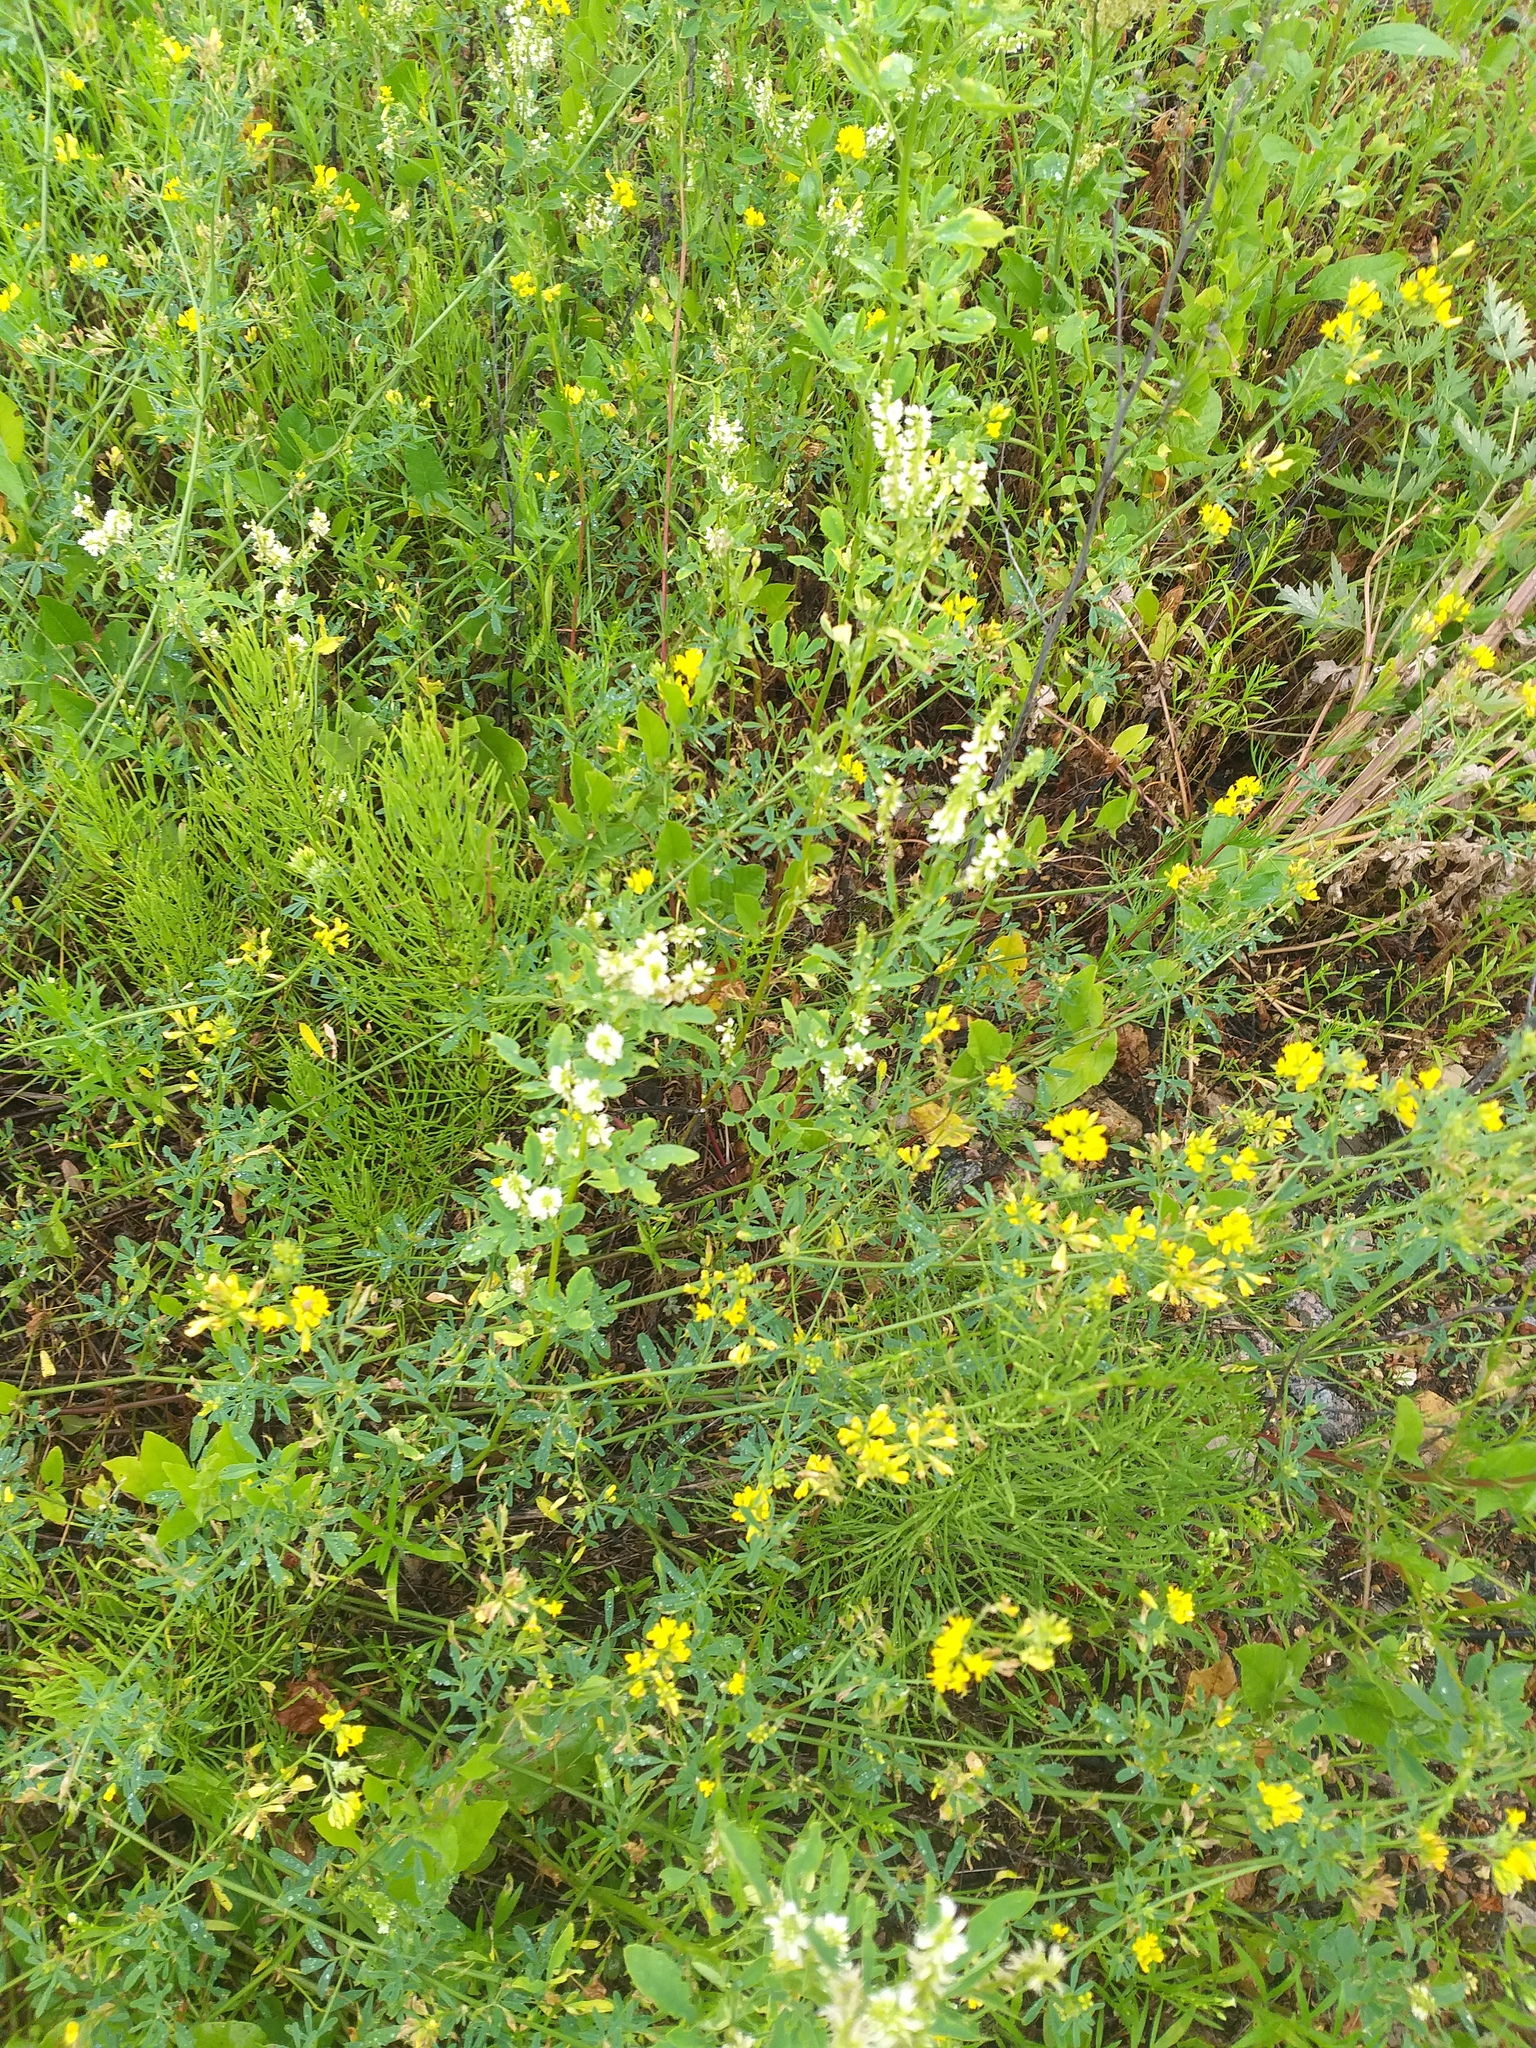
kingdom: Plantae
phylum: Tracheophyta
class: Magnoliopsida
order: Fabales
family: Fabaceae
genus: Melilotus
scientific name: Melilotus albus
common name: White melilot
